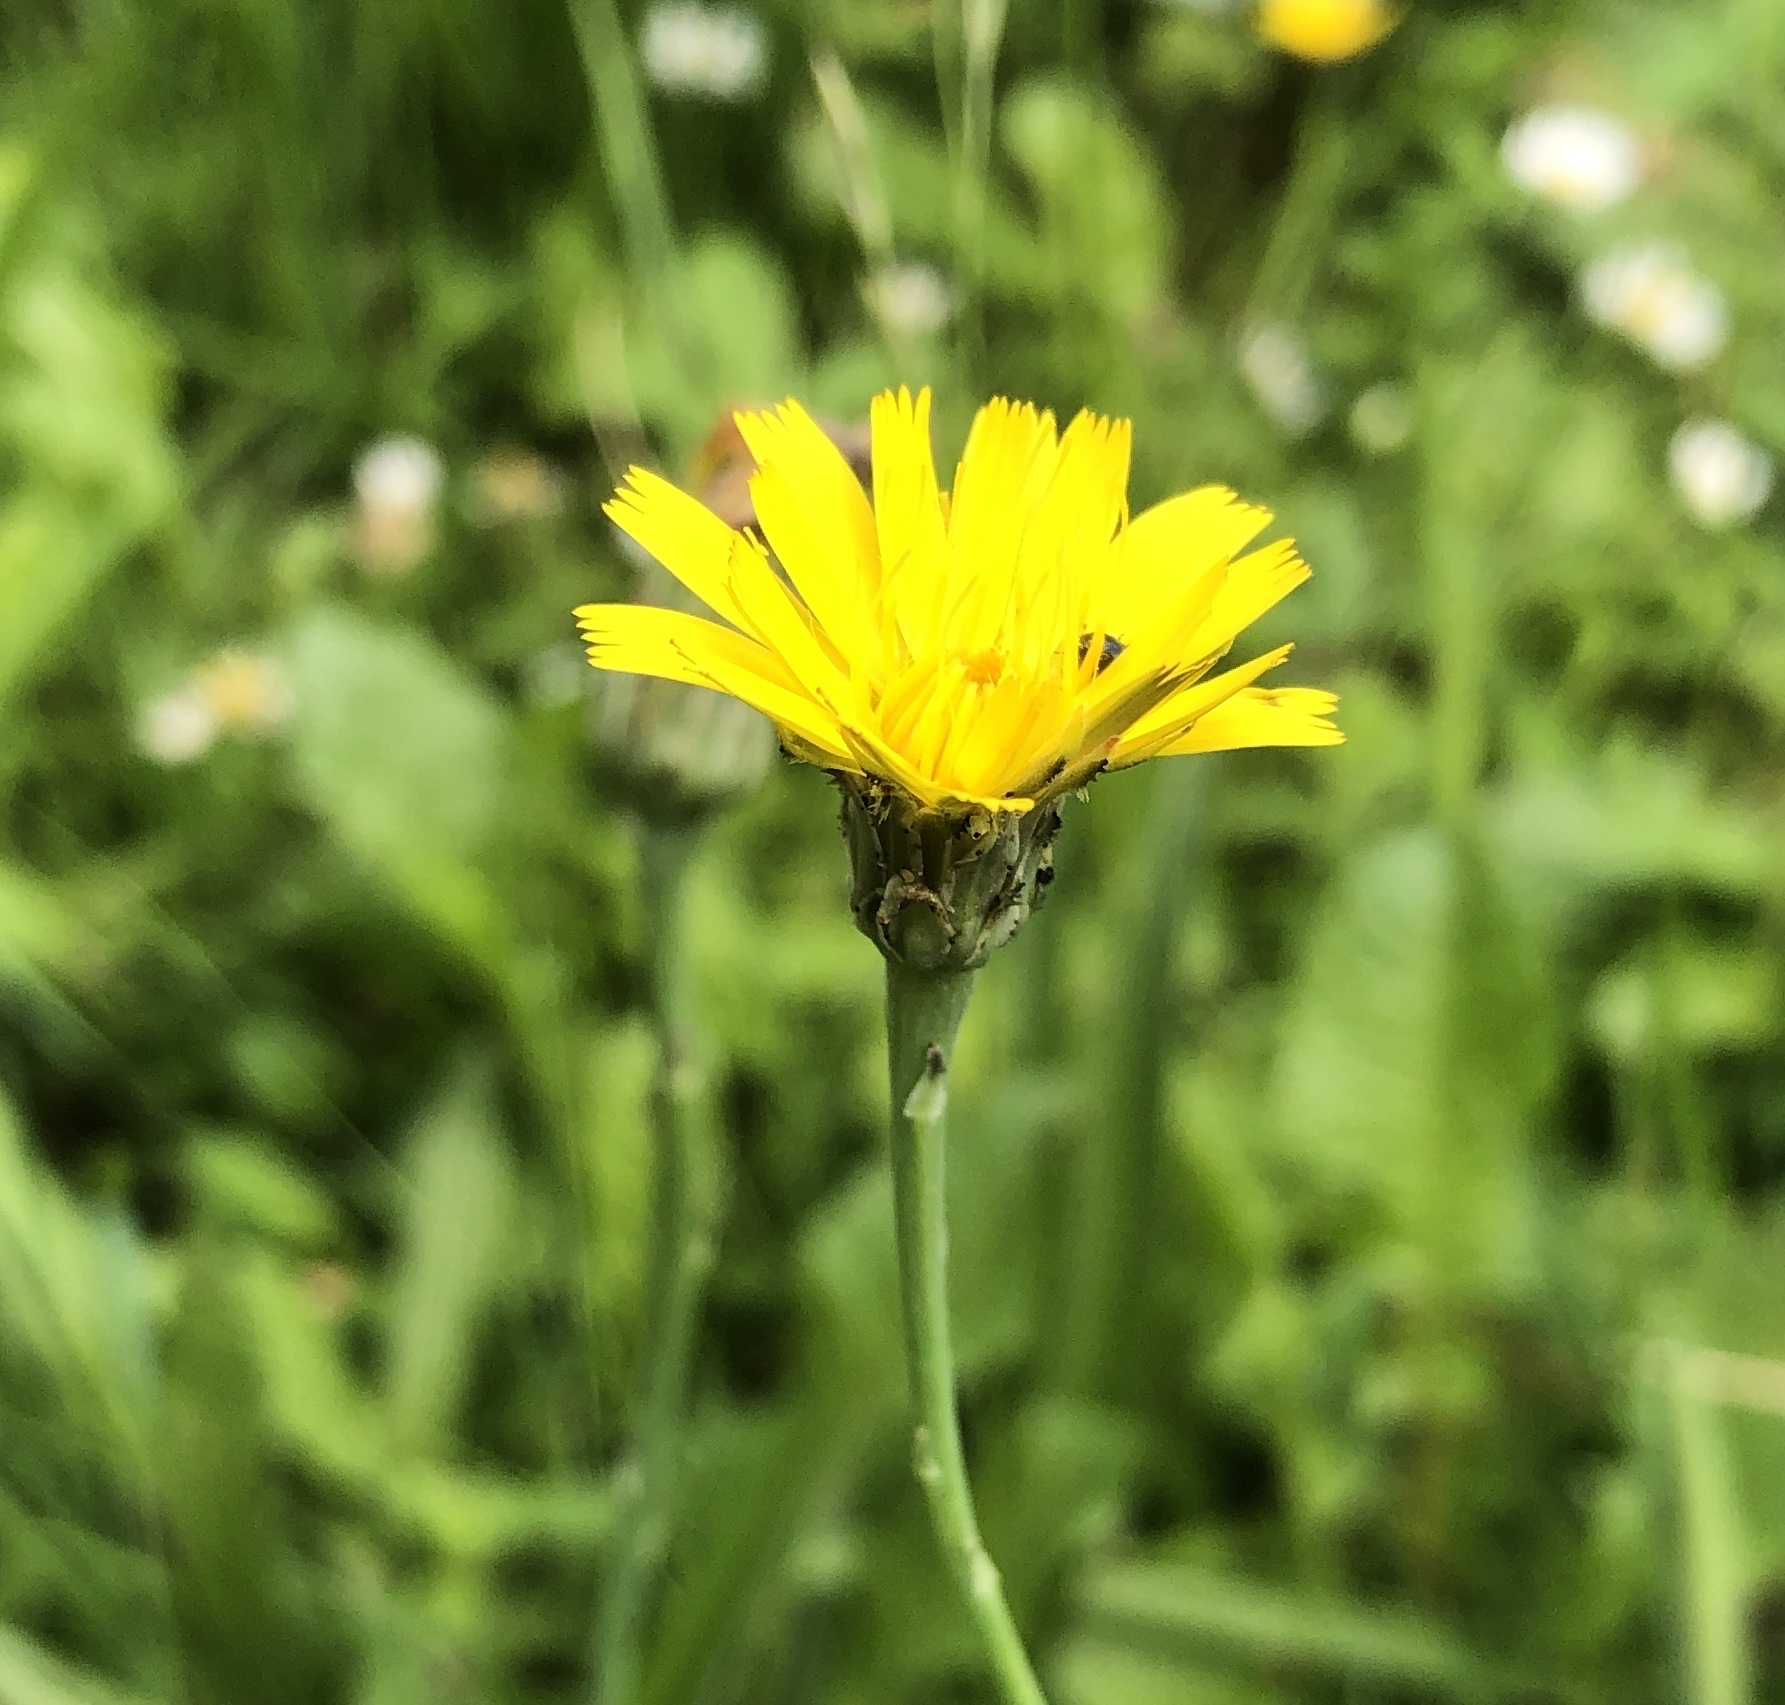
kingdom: Plantae
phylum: Tracheophyta
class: Magnoliopsida
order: Asterales
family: Asteraceae
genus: Hypochaeris
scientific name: Hypochaeris radicata
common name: Flatweed
